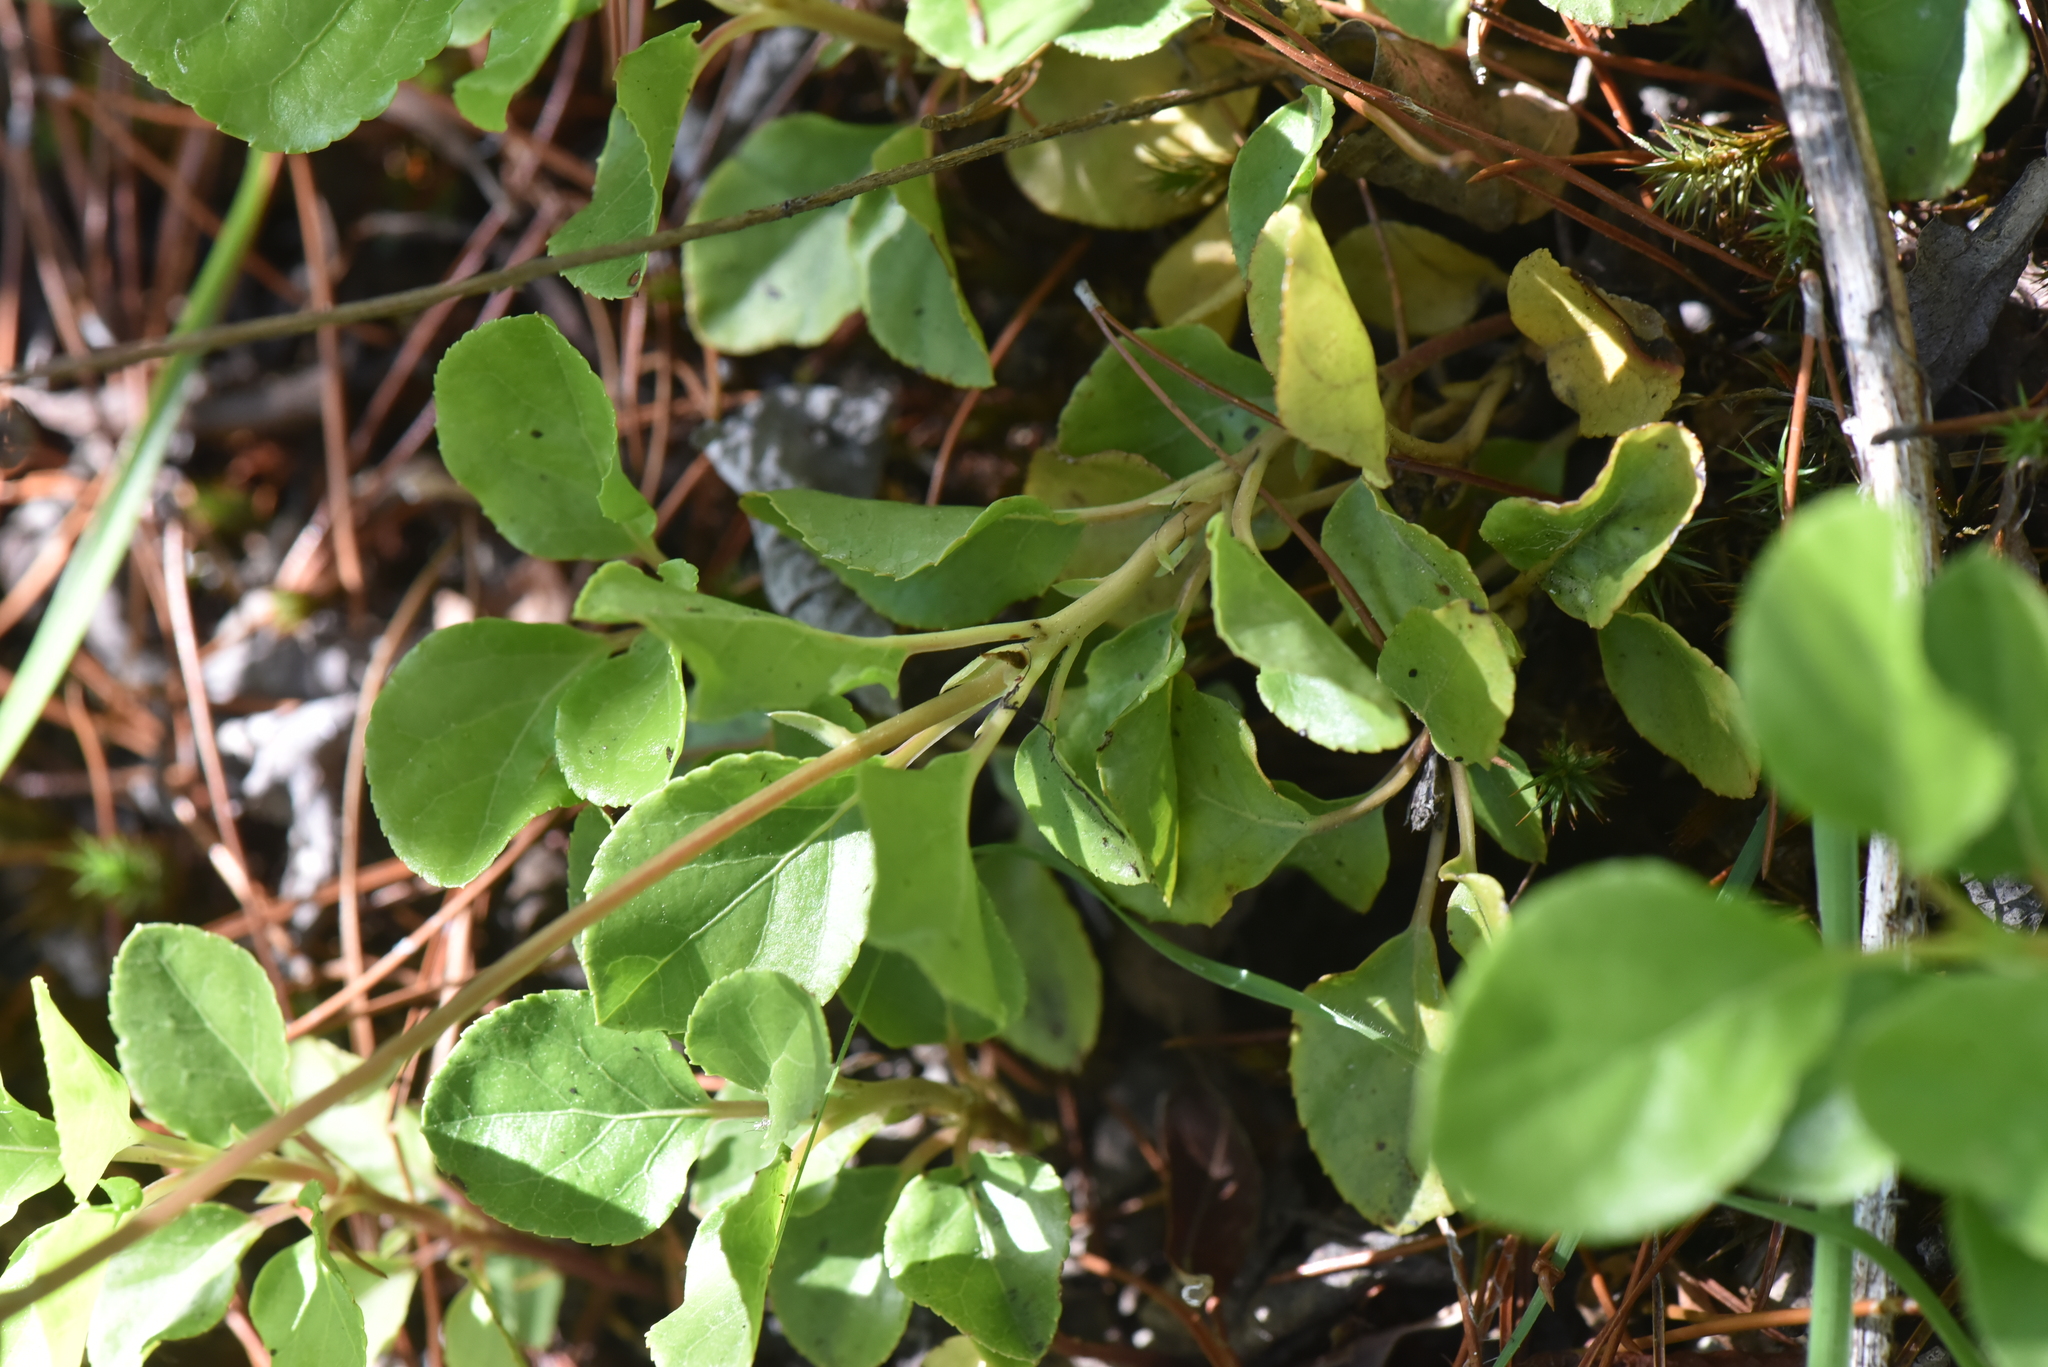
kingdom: Plantae
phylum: Tracheophyta
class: Magnoliopsida
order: Ericales
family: Ericaceae
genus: Orthilia
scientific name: Orthilia secunda
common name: One-sided orthilia
